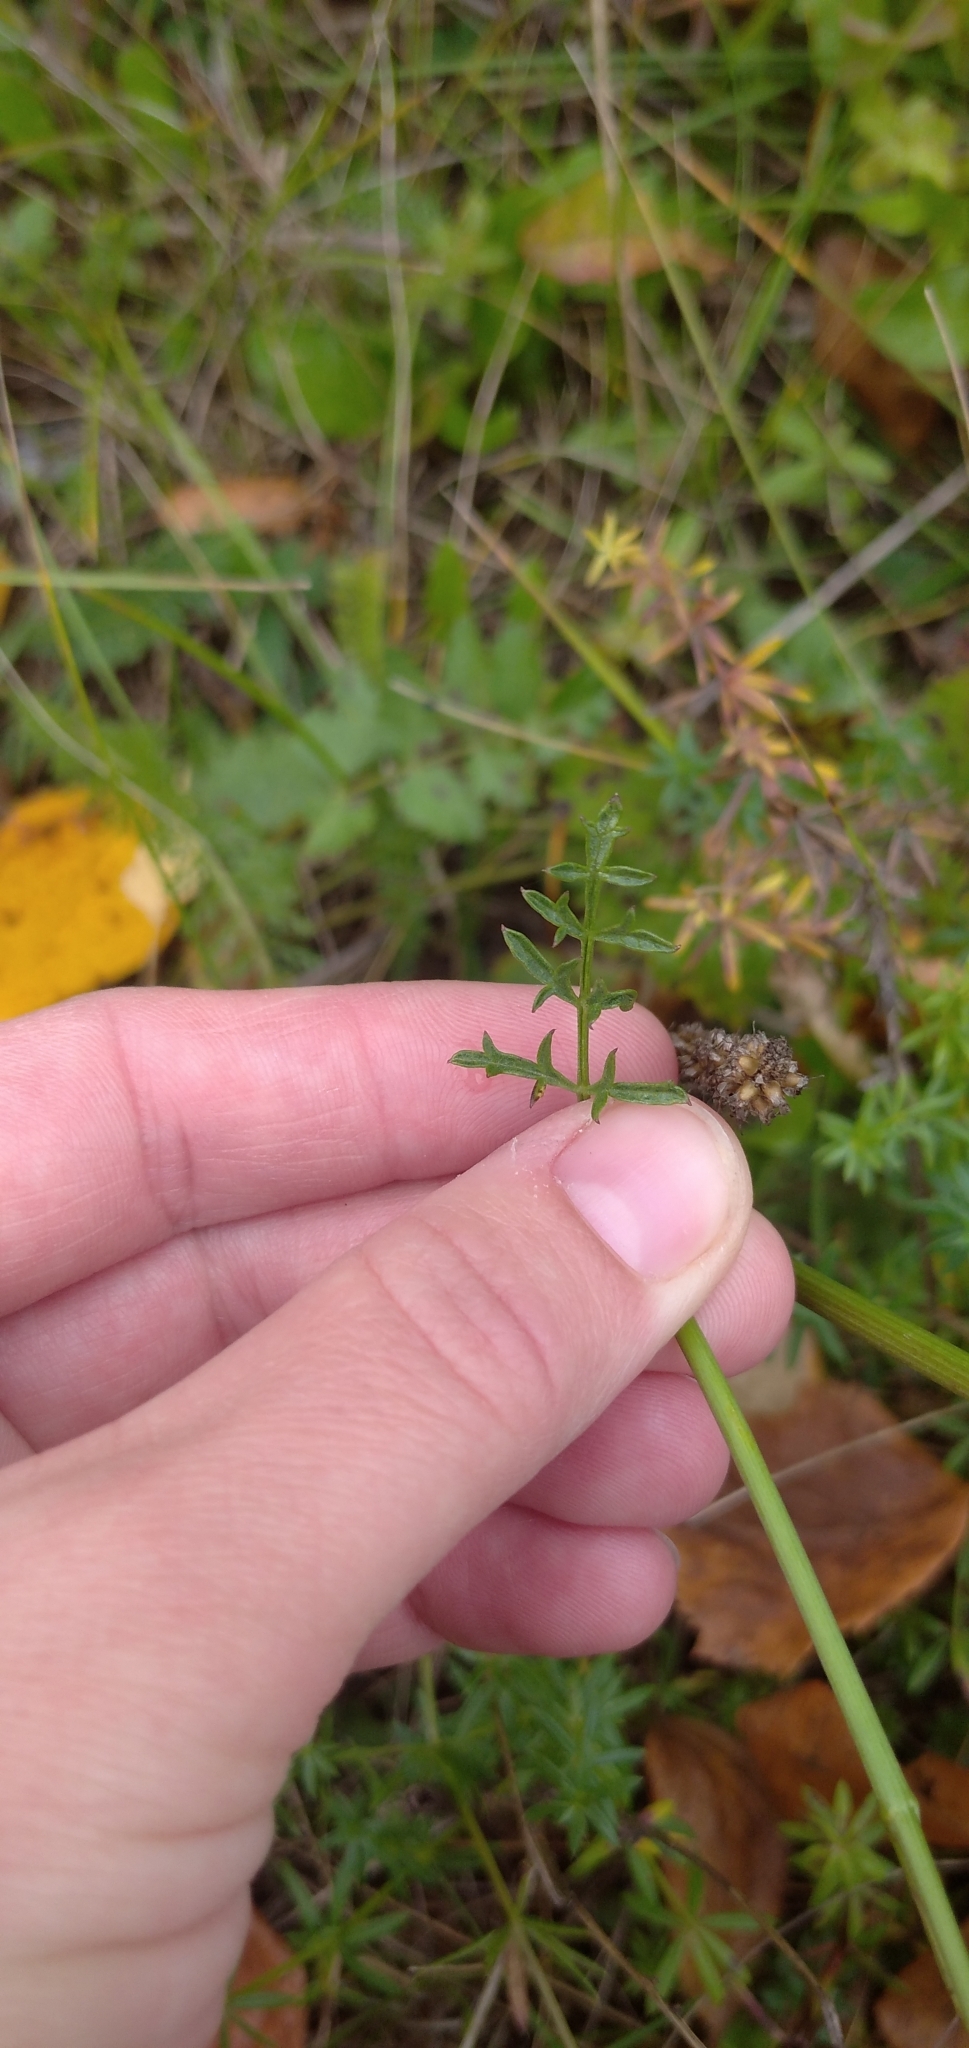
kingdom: Plantae
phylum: Tracheophyta
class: Magnoliopsida
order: Apiales
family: Apiaceae
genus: Pimpinella
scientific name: Pimpinella saxifraga
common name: Burnet-saxifrage
